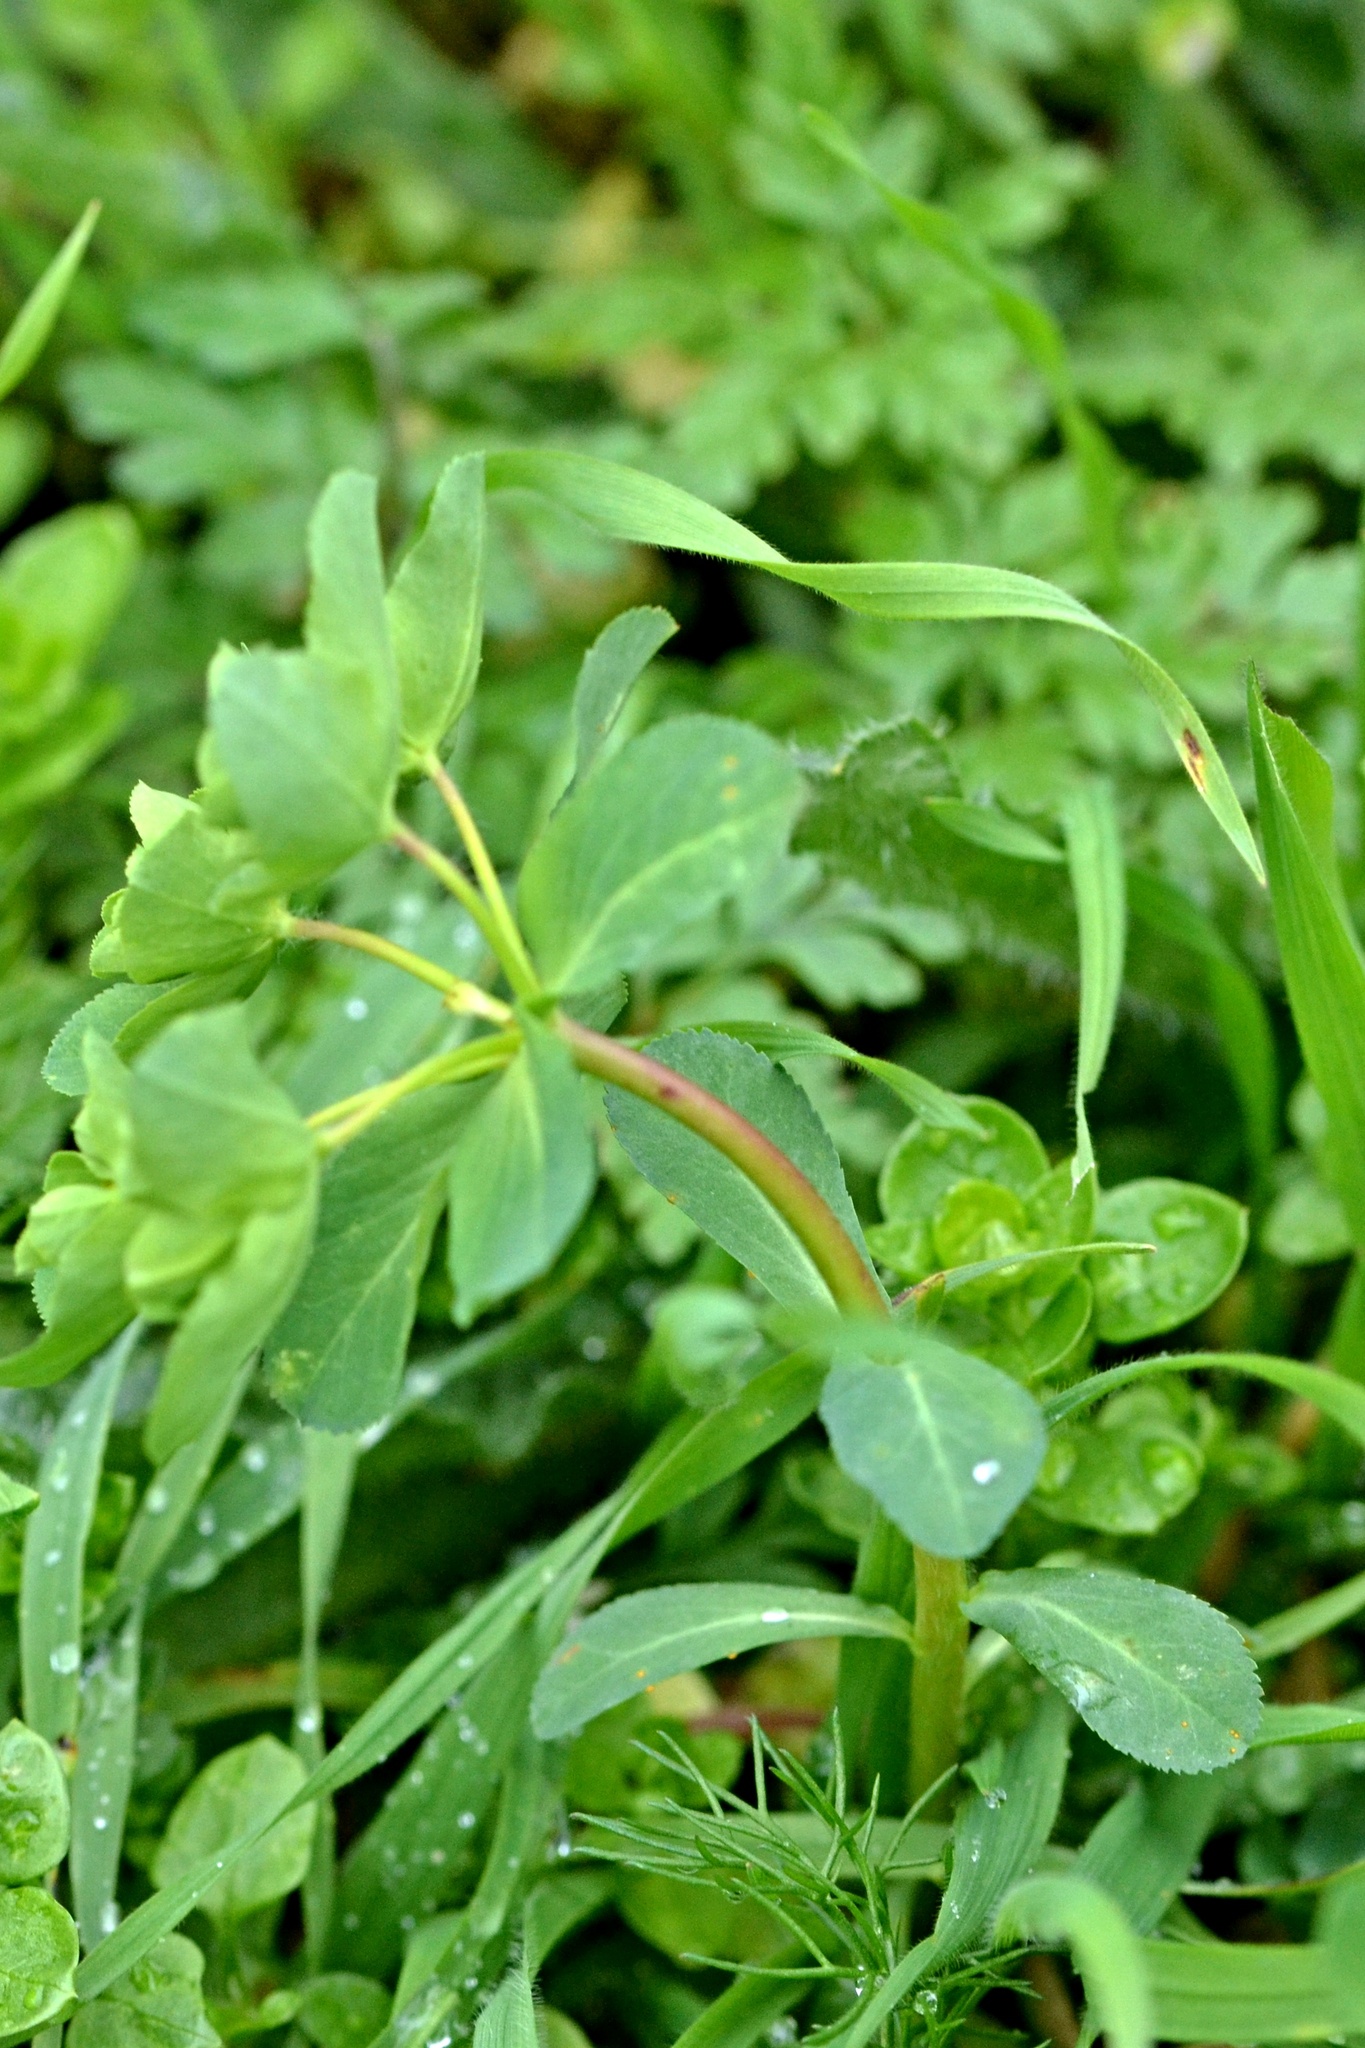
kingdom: Plantae
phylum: Tracheophyta
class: Magnoliopsida
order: Malpighiales
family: Euphorbiaceae
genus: Euphorbia
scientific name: Euphorbia helioscopia
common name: Sun spurge
